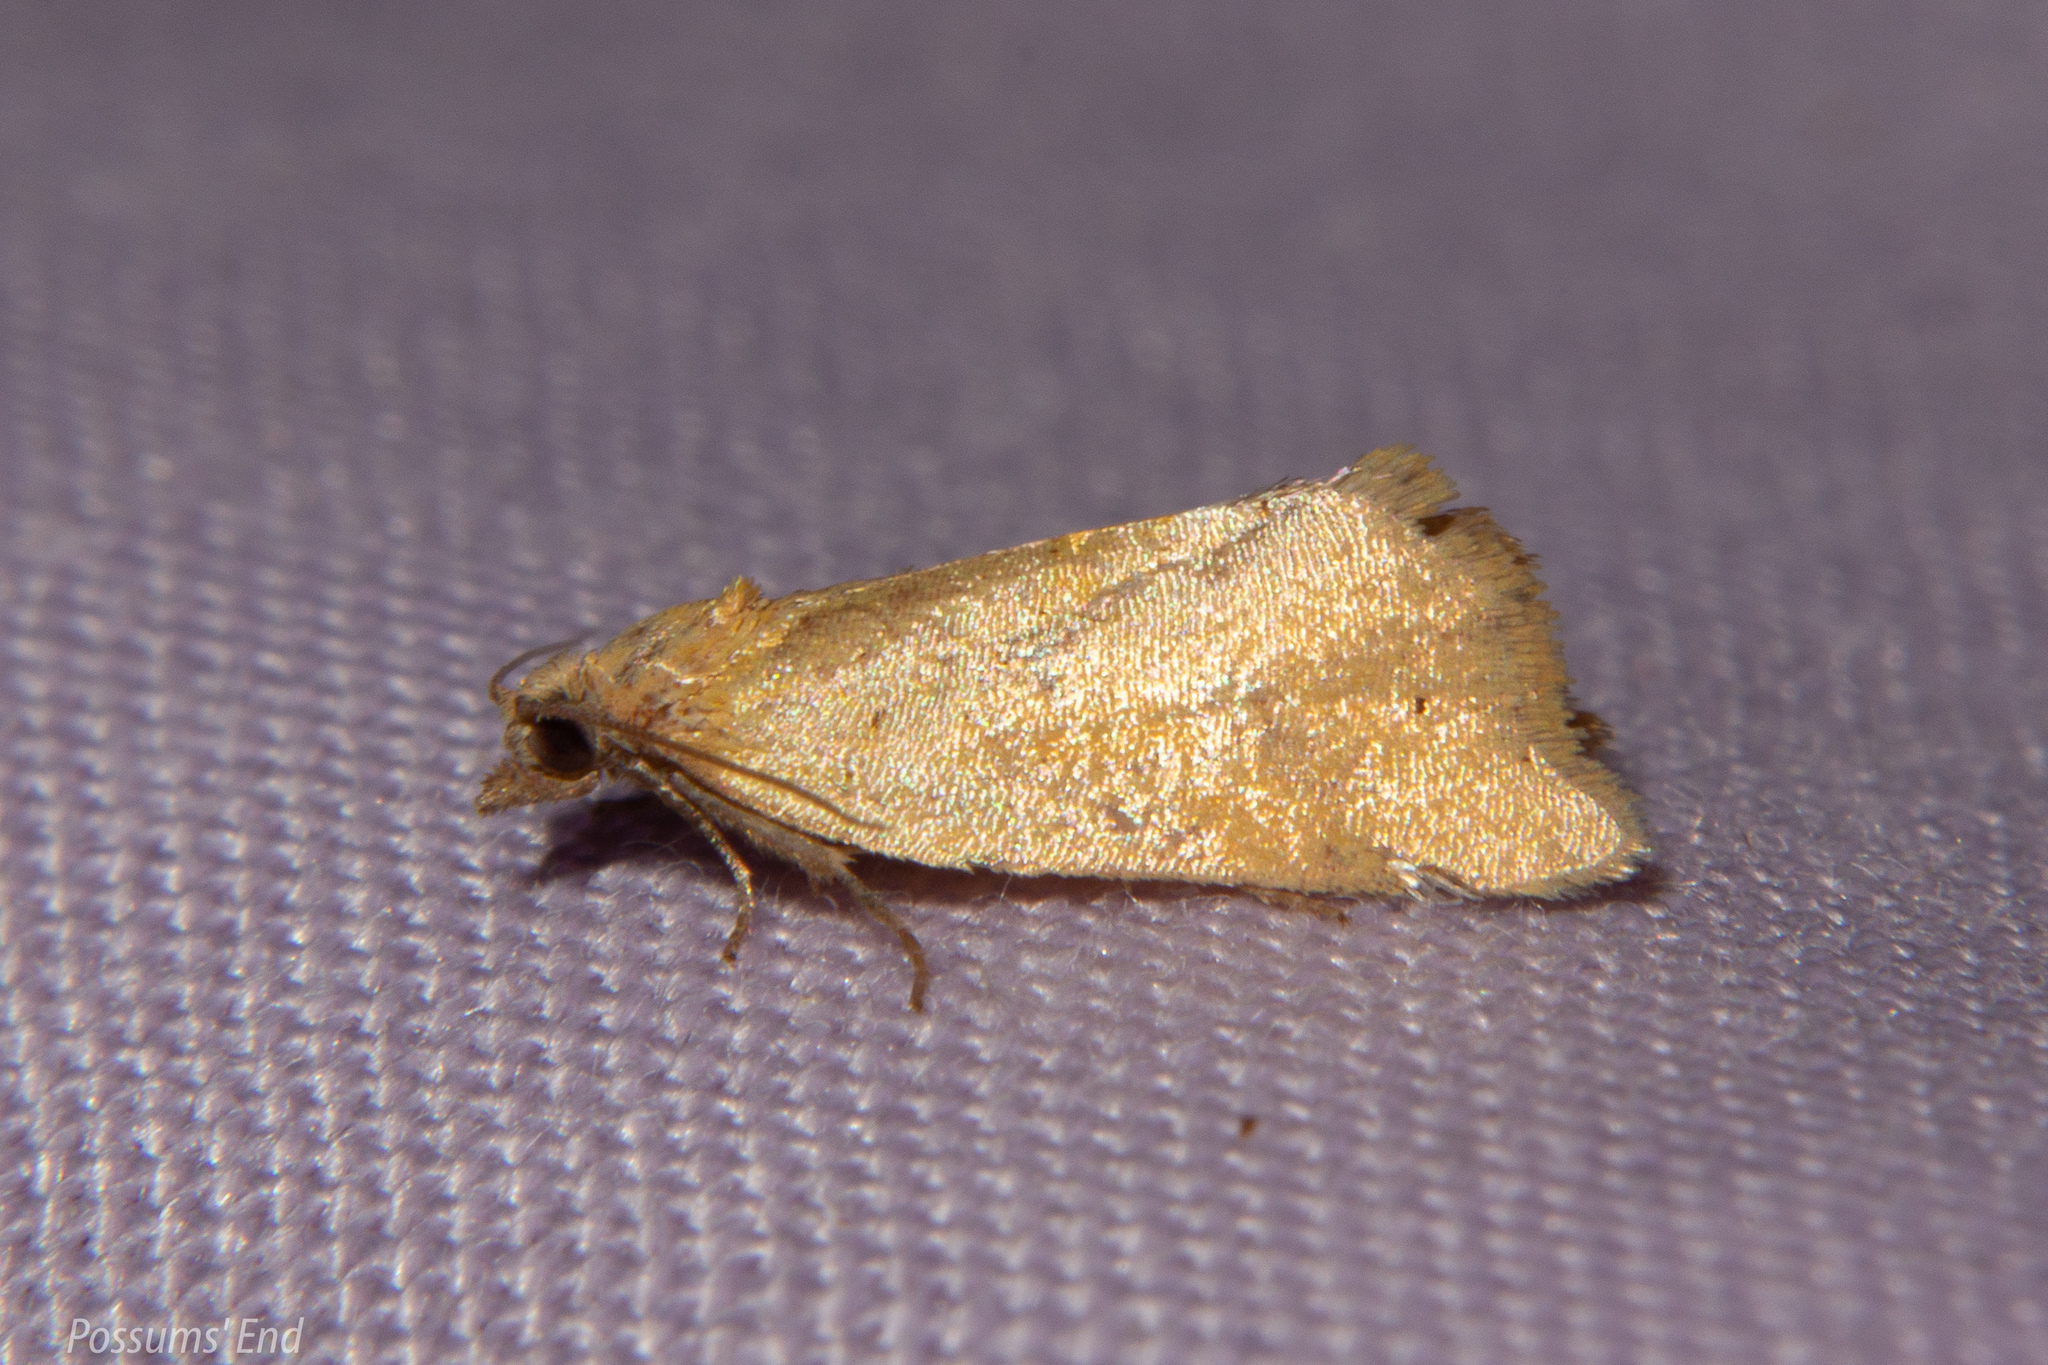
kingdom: Animalia
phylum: Arthropoda
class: Insecta
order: Lepidoptera
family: Tortricidae
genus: Pyrgotis
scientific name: Pyrgotis pyramidias
